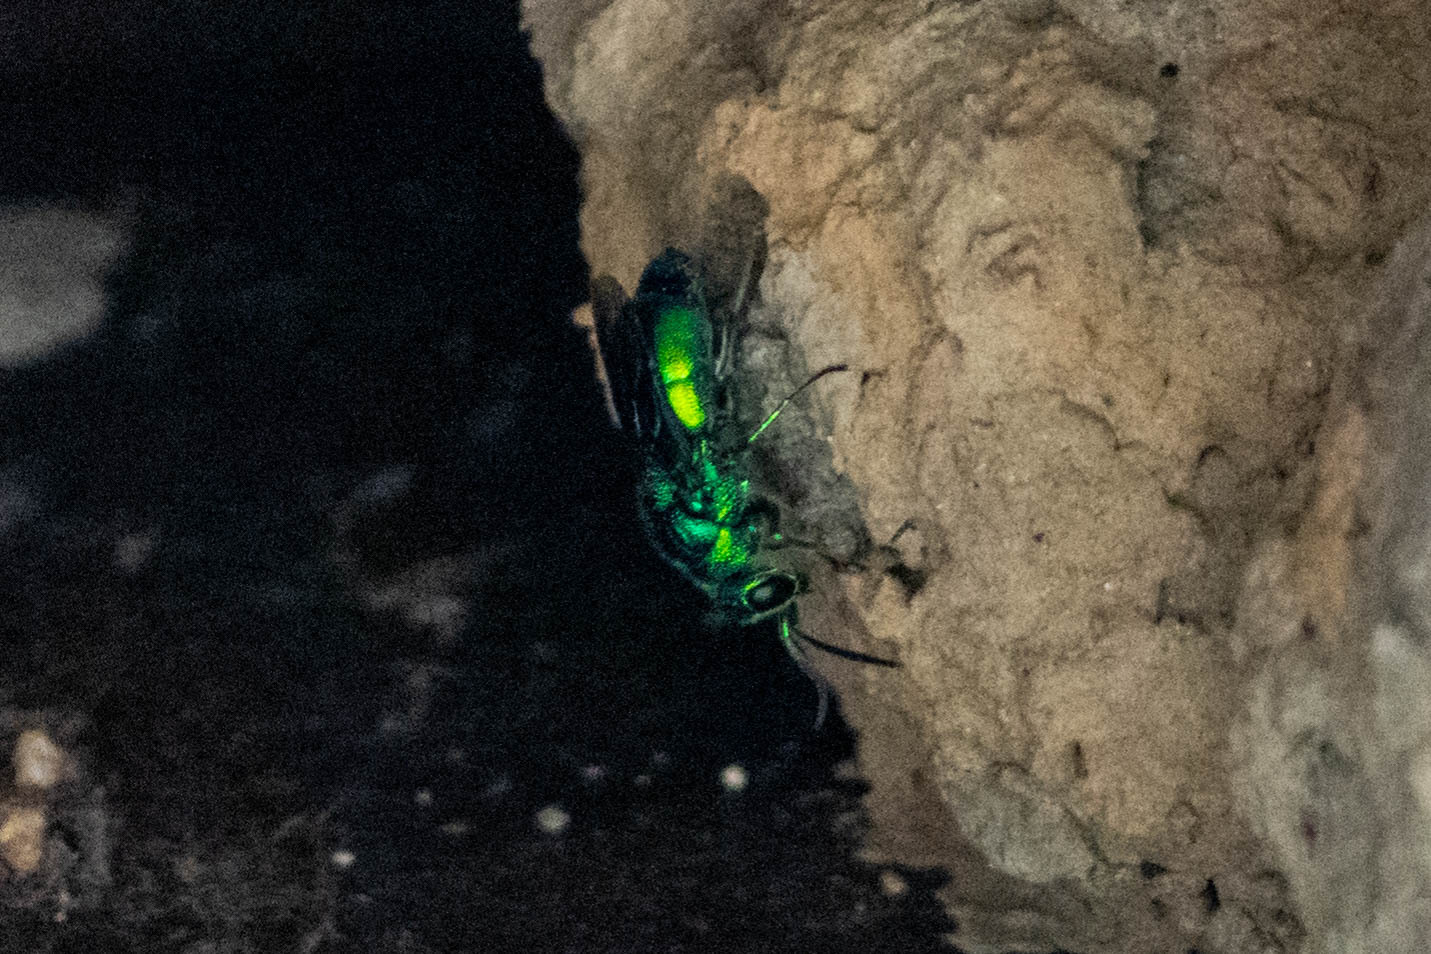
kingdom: Animalia
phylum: Arthropoda
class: Insecta
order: Hymenoptera
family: Chrysididae
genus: Chrysis
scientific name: Chrysis angolensis
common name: Cuckoo wasp
